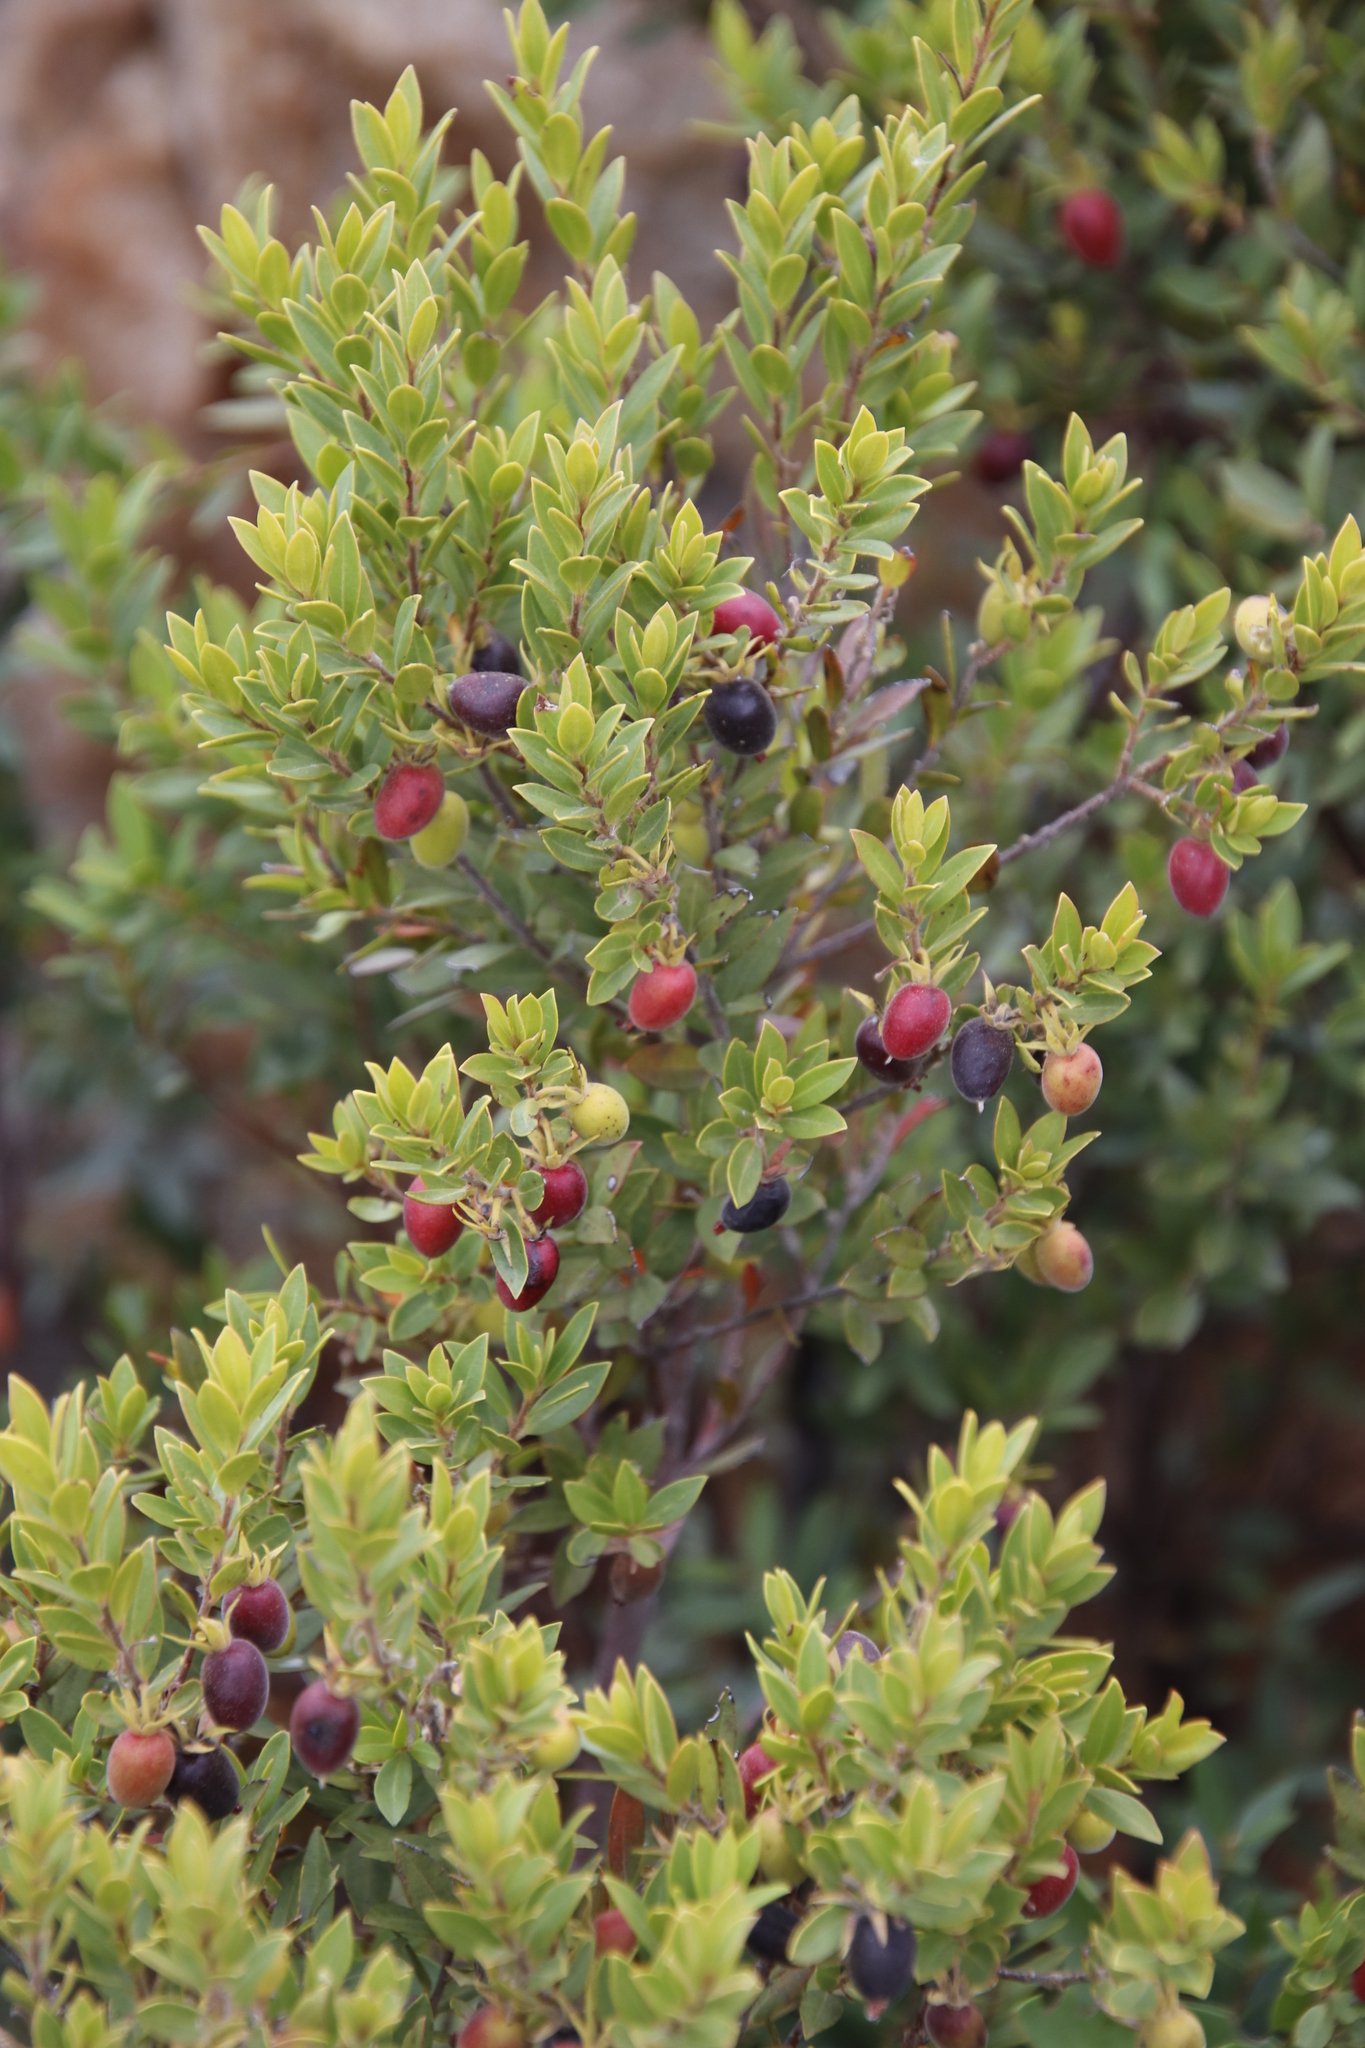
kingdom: Plantae
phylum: Tracheophyta
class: Magnoliopsida
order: Ericales
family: Ebenaceae
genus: Diospyros
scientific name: Diospyros glabra
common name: Fynbos star apple
